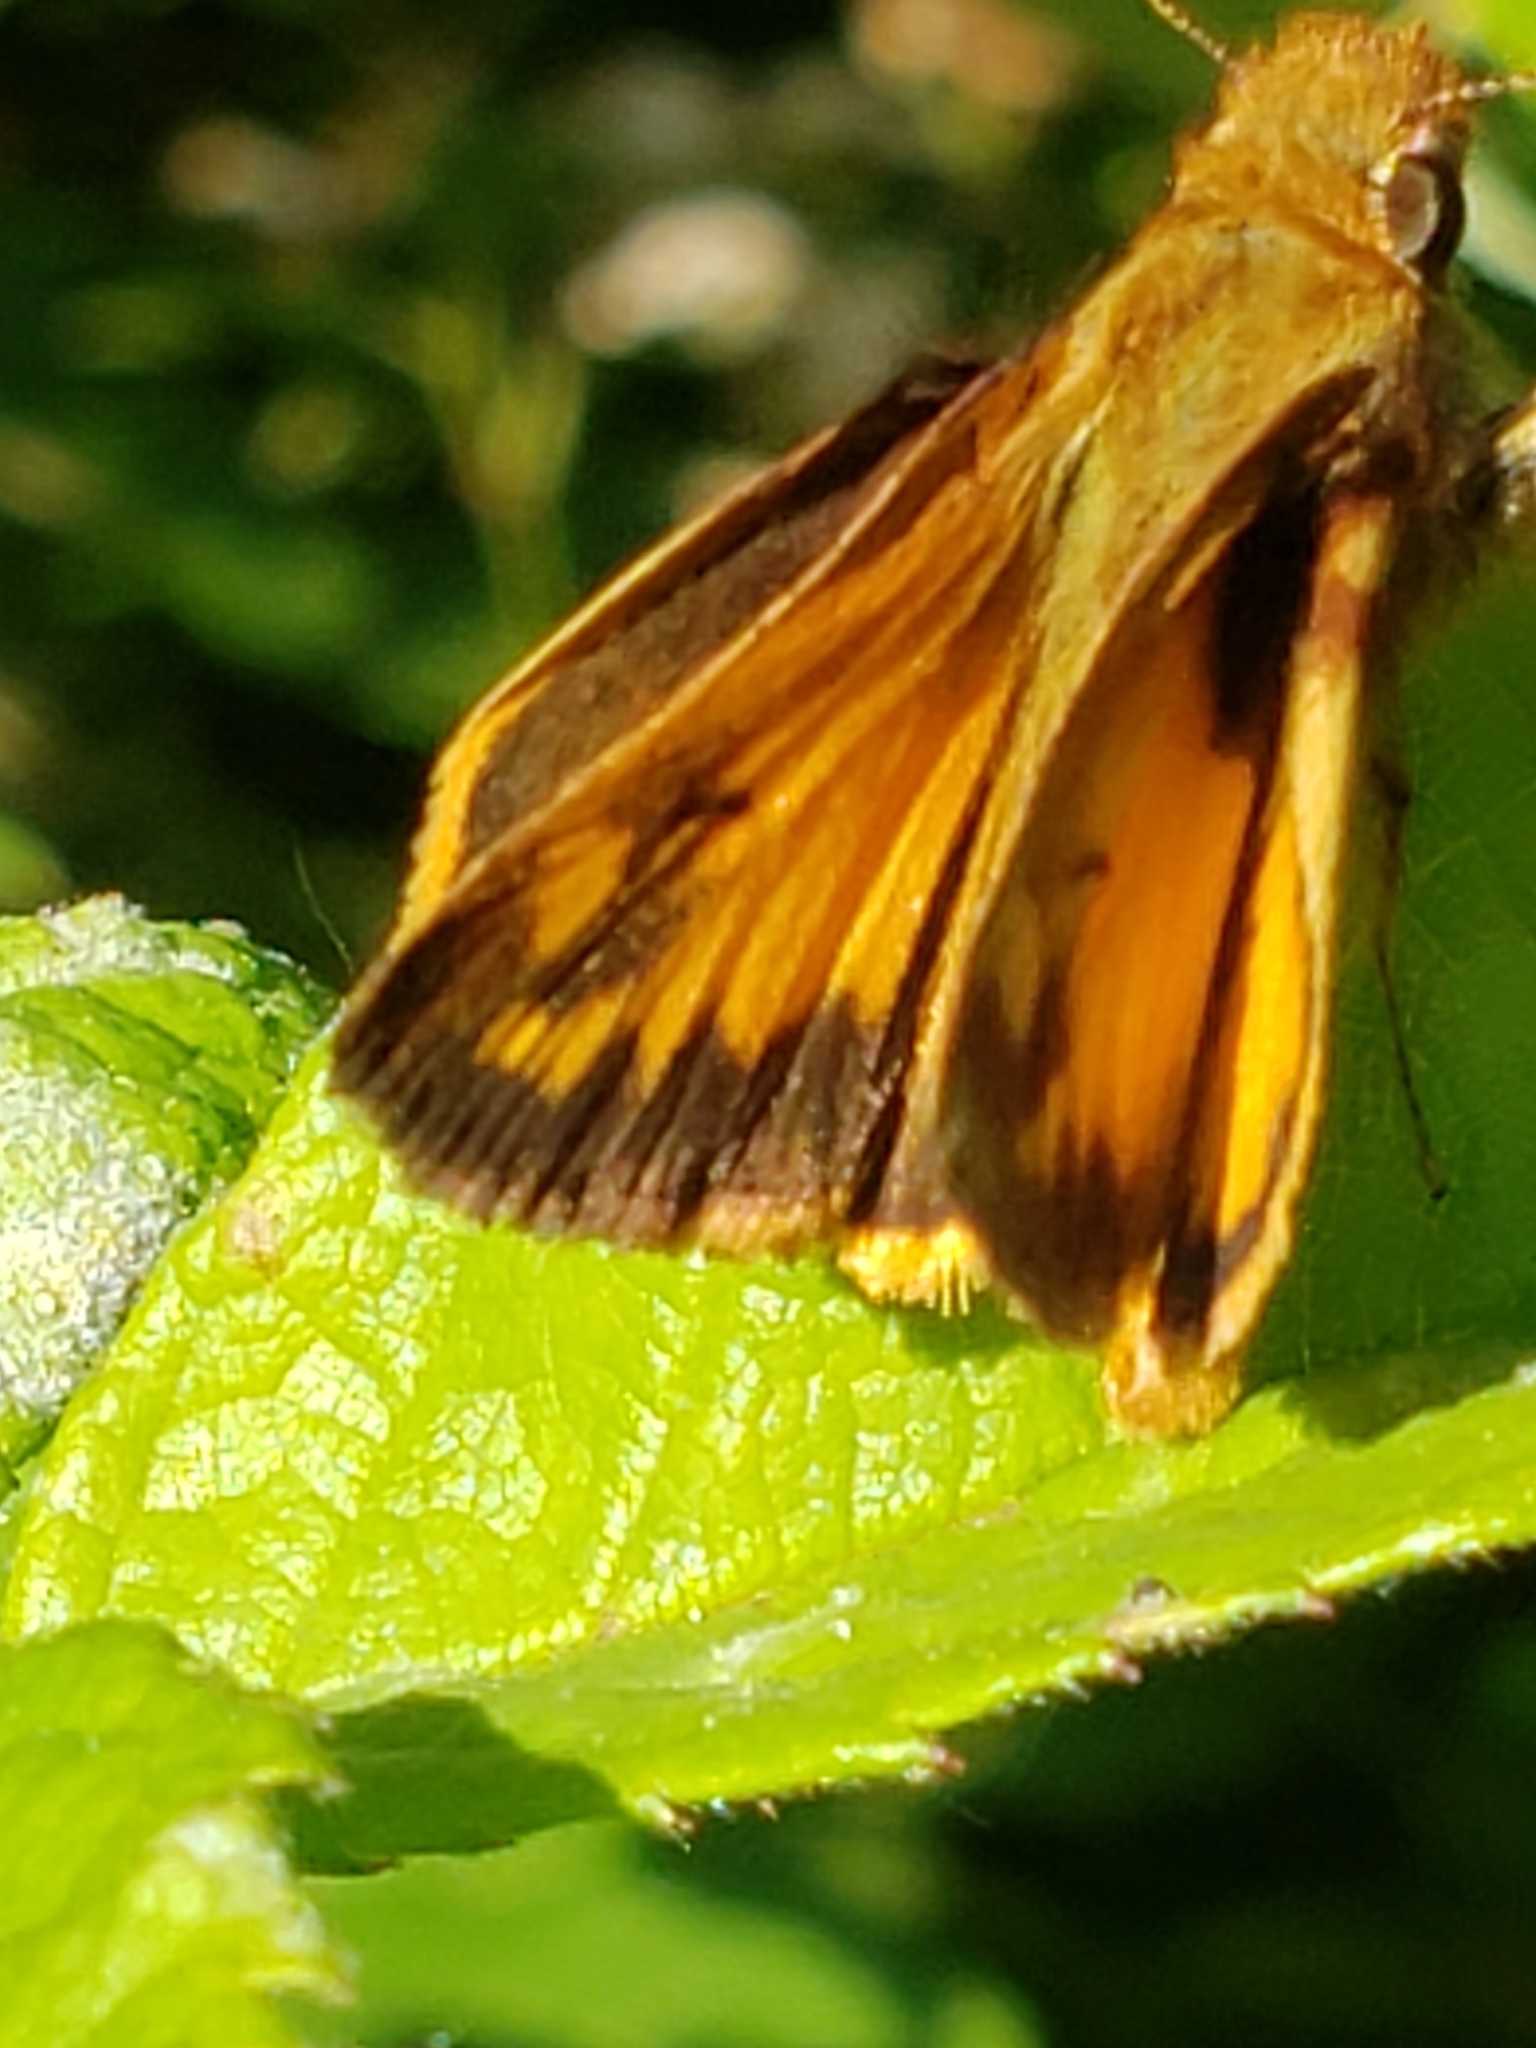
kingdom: Animalia
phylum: Arthropoda
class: Insecta
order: Lepidoptera
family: Hesperiidae
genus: Lon
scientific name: Lon zabulon
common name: Zabulon skipper
